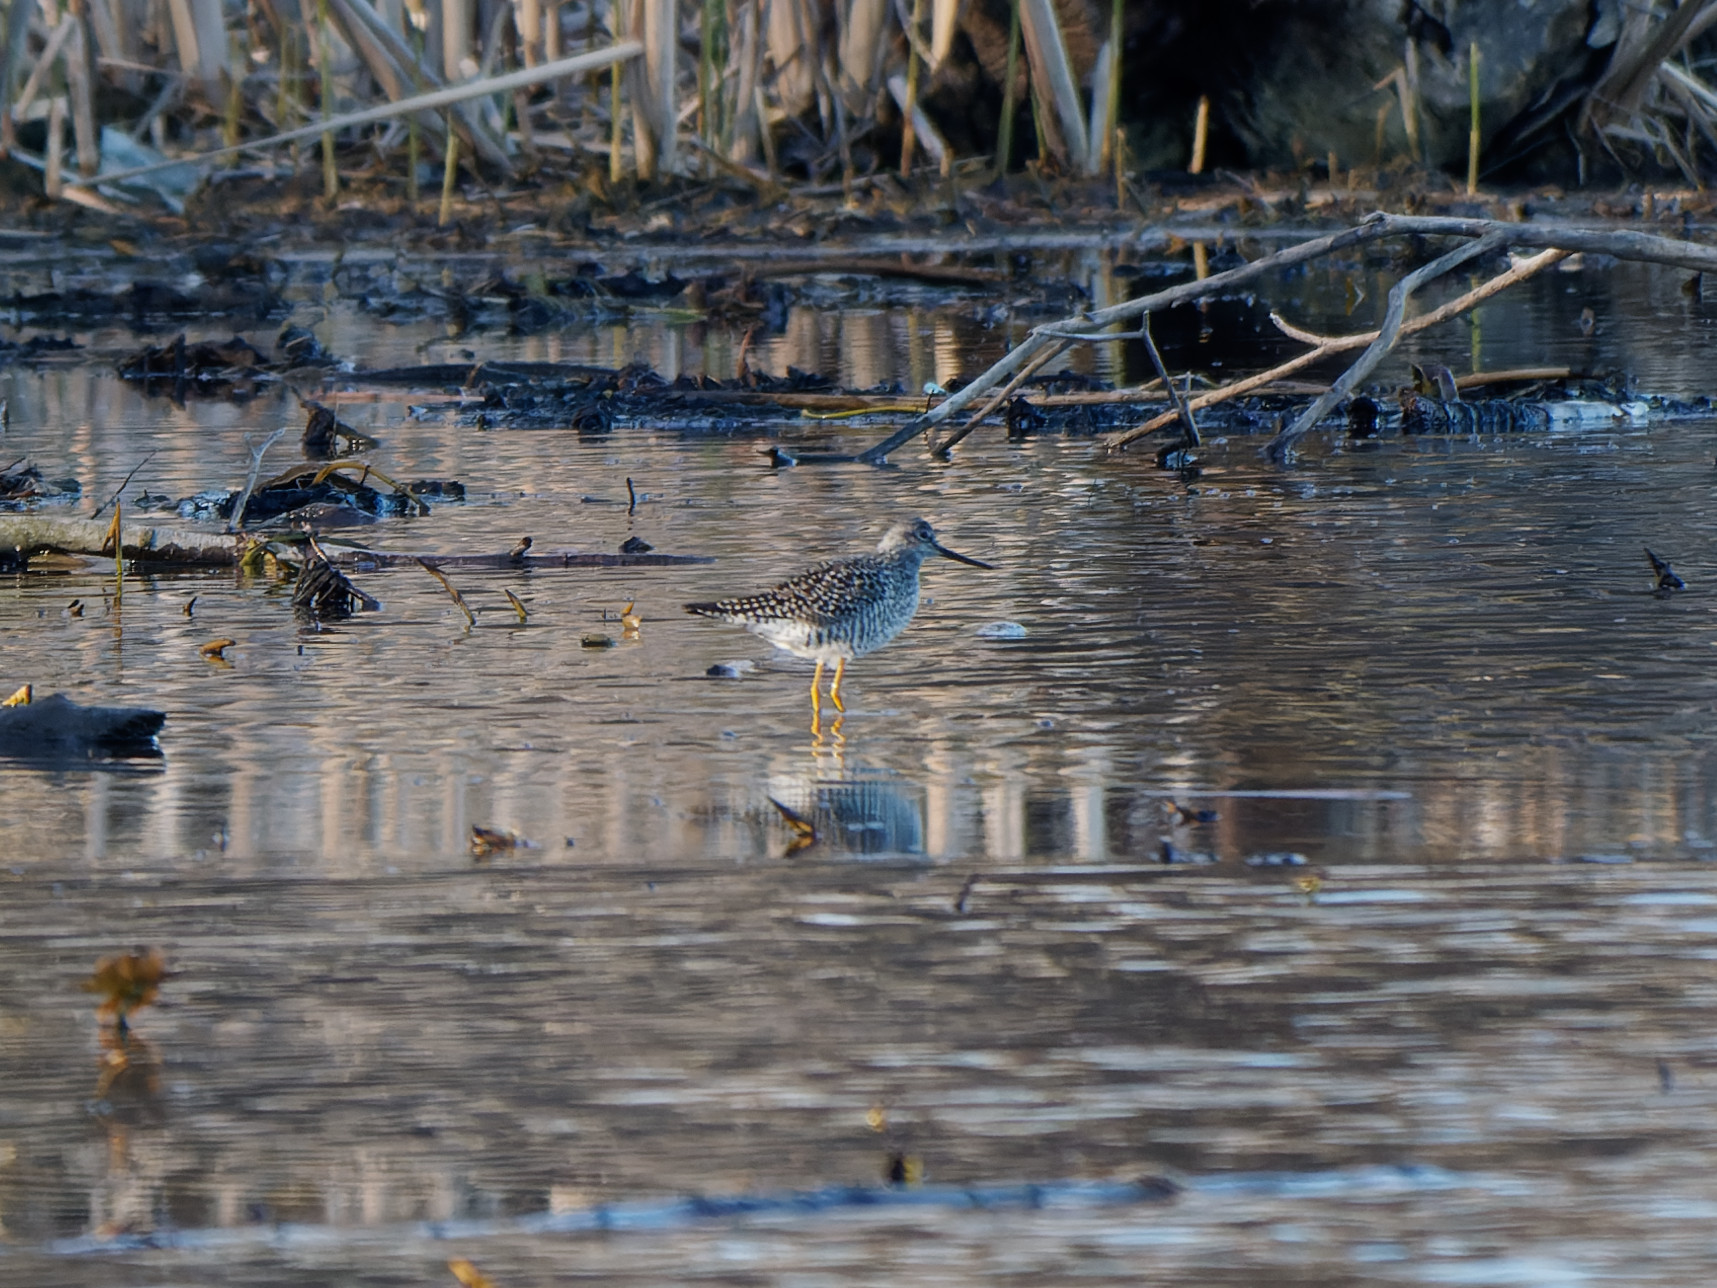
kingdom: Animalia
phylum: Chordata
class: Aves
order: Charadriiformes
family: Scolopacidae
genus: Tringa
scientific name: Tringa melanoleuca
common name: Greater yellowlegs
